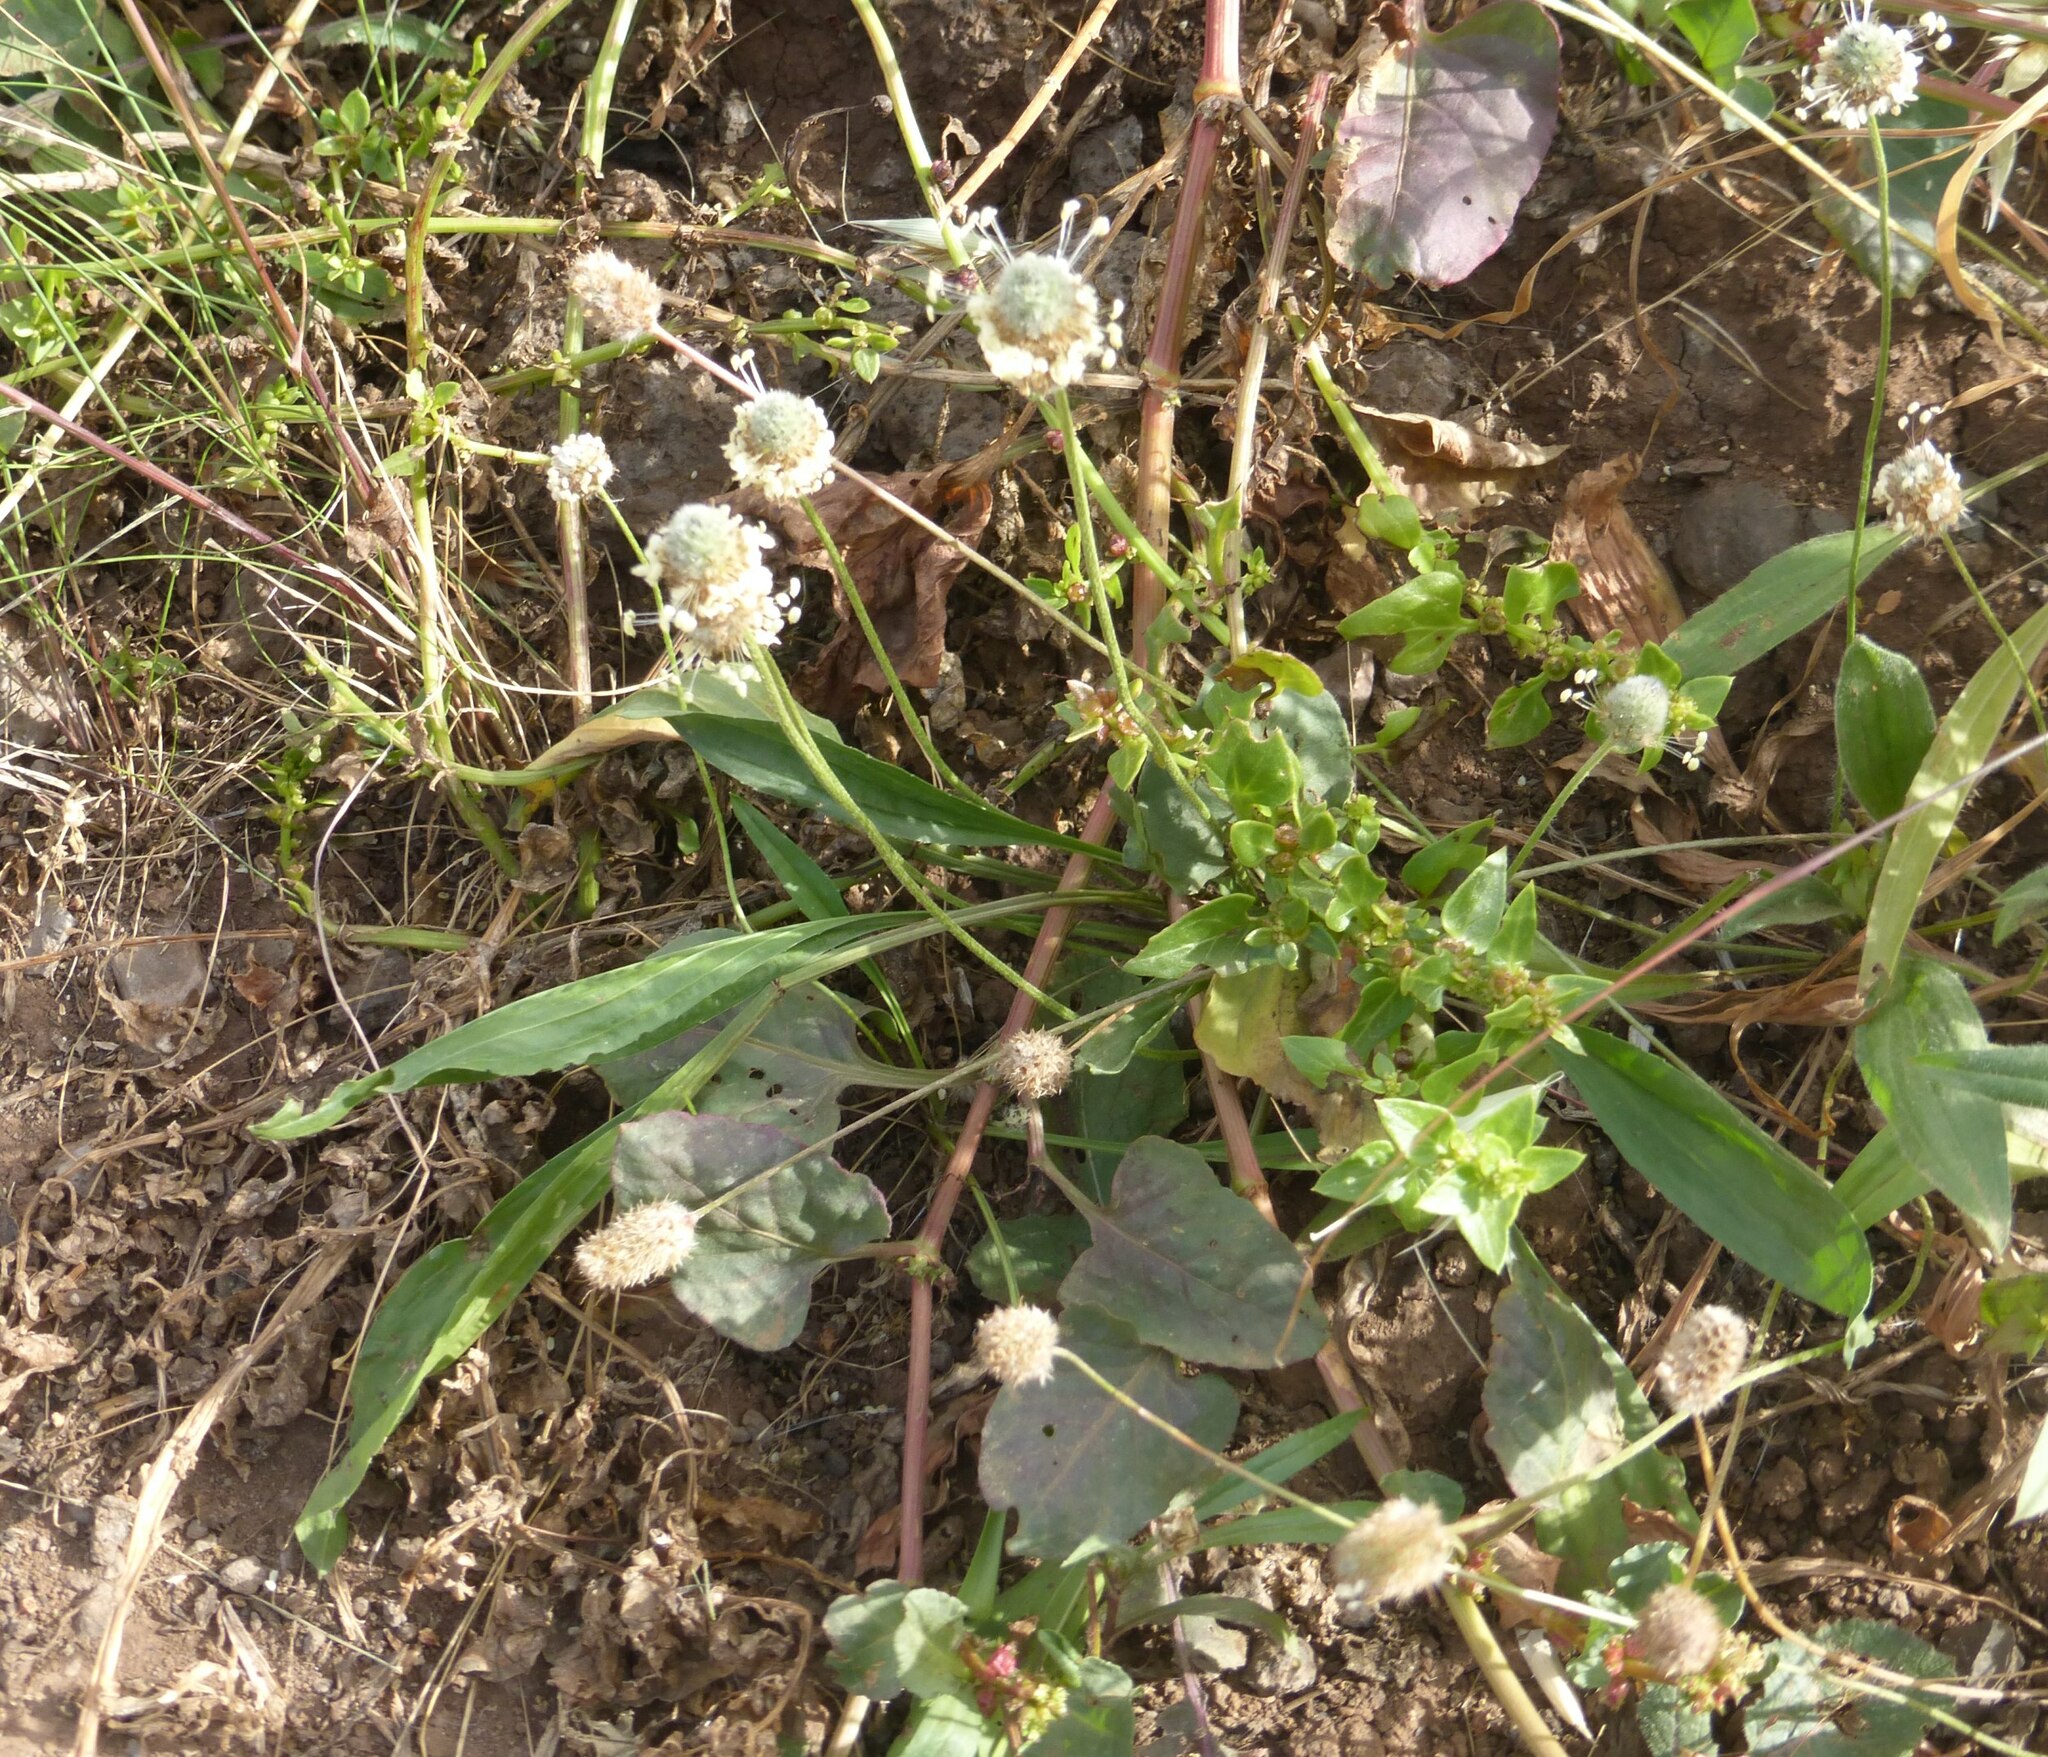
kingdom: Plantae
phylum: Tracheophyta
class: Magnoliopsida
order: Lamiales
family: Plantaginaceae
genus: Plantago
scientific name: Plantago lagopus
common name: Hare-foot plantain
